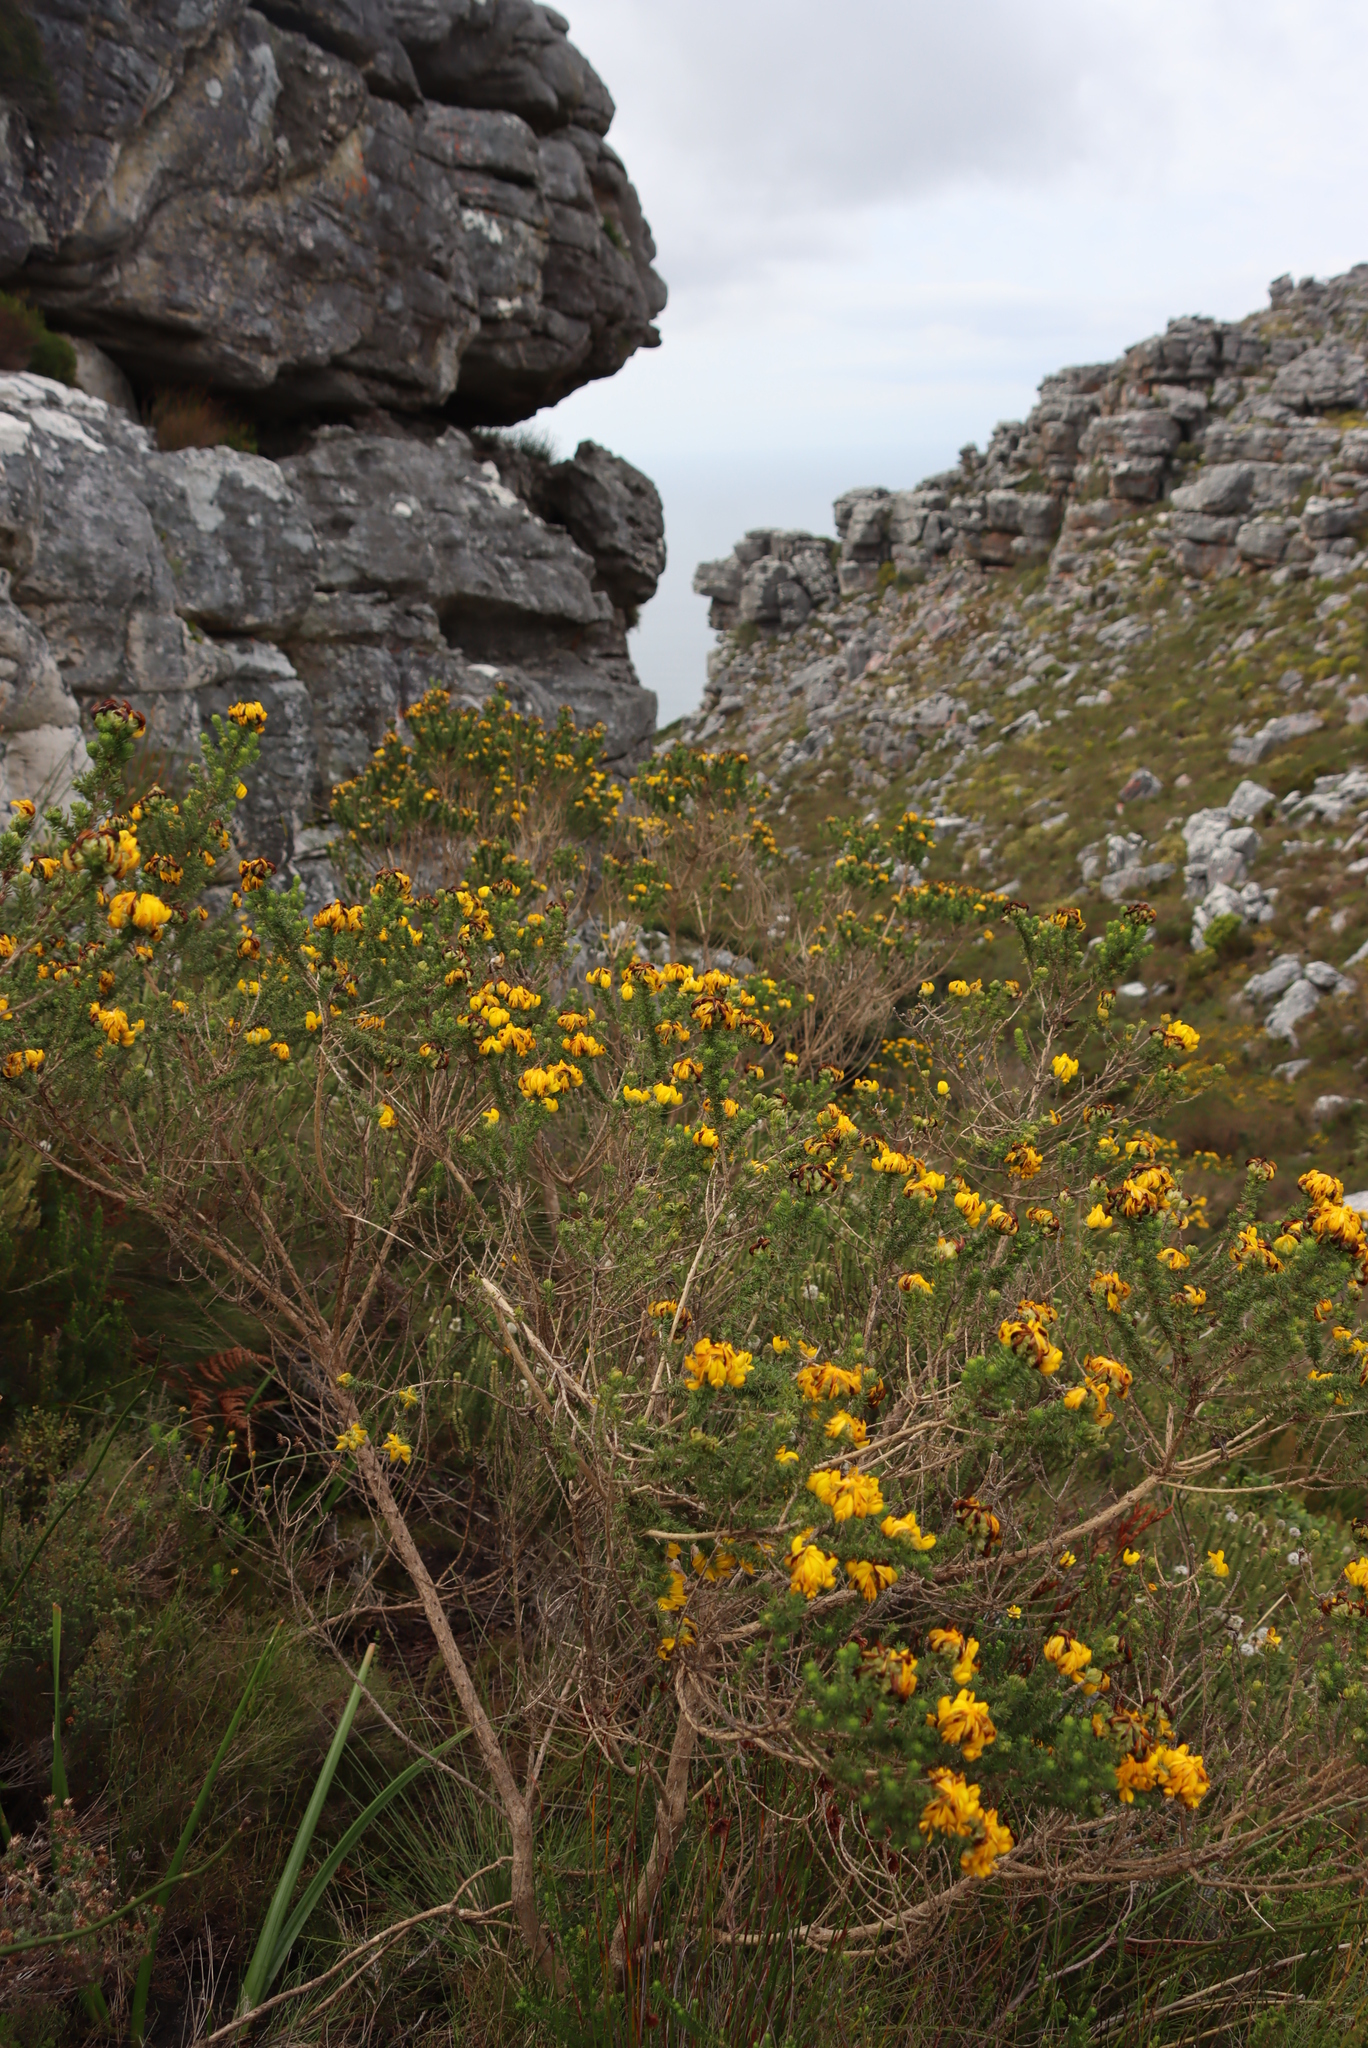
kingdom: Plantae
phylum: Tracheophyta
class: Magnoliopsida
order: Fabales
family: Fabaceae
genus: Aspalathus
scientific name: Aspalathus capitata
